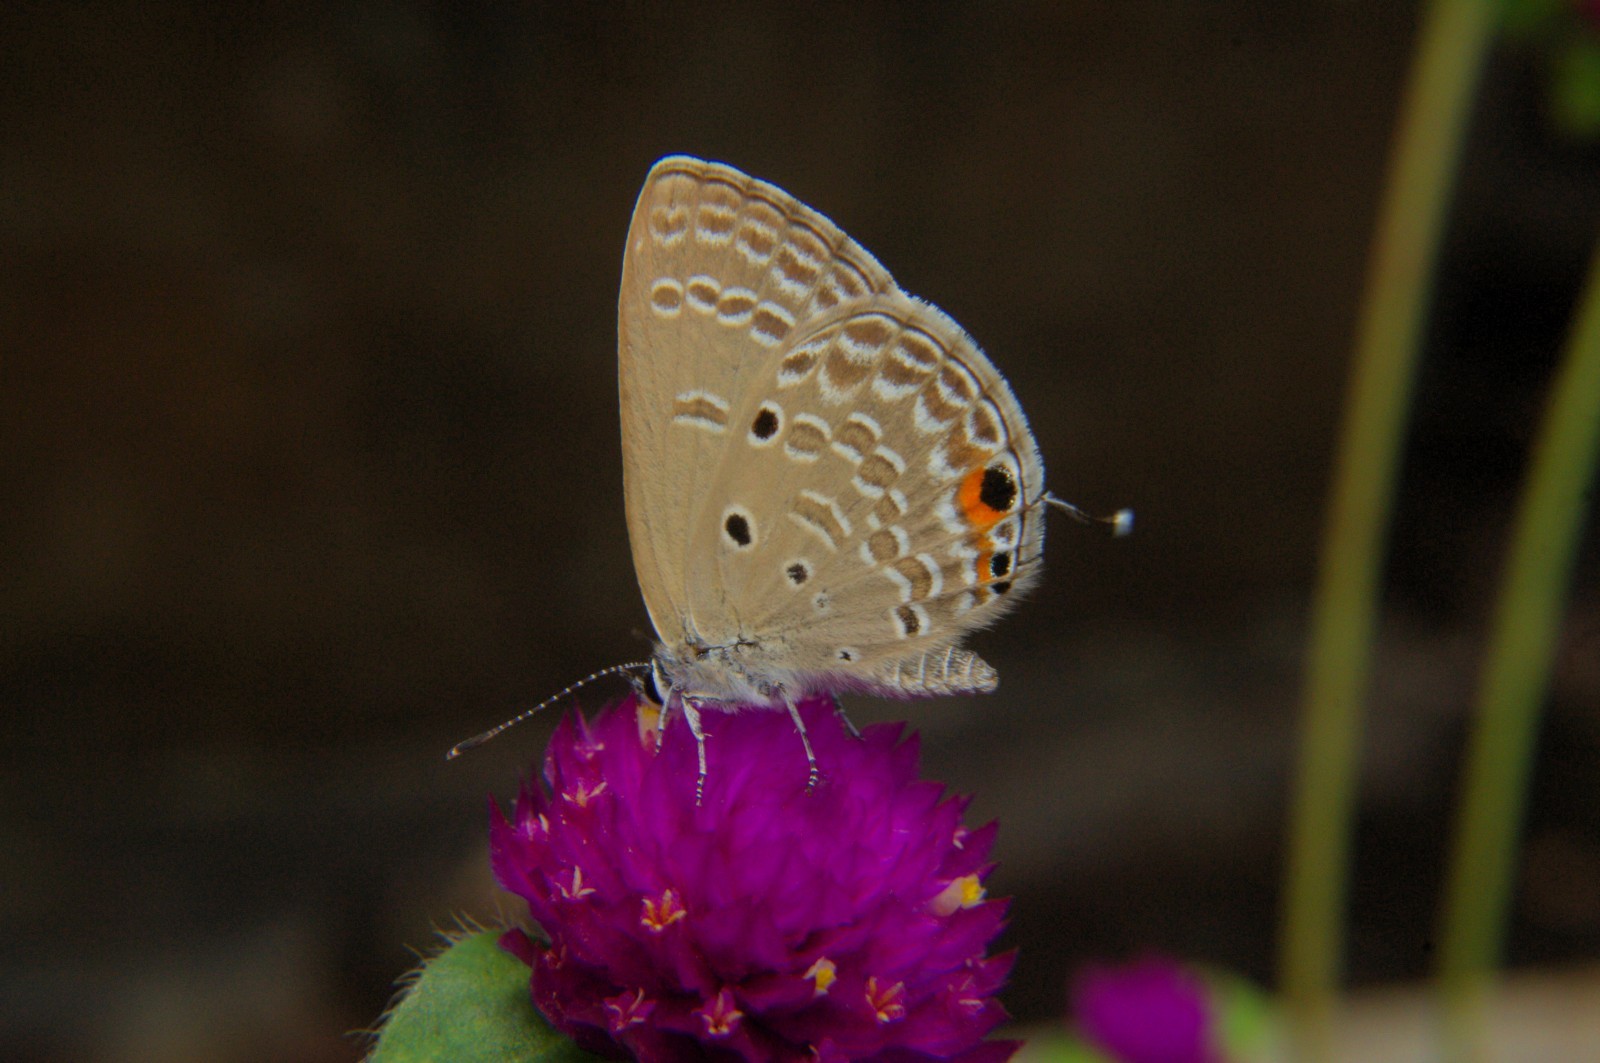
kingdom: Animalia
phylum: Arthropoda
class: Insecta
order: Lepidoptera
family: Lycaenidae
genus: Luthrodes
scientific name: Luthrodes pandava
